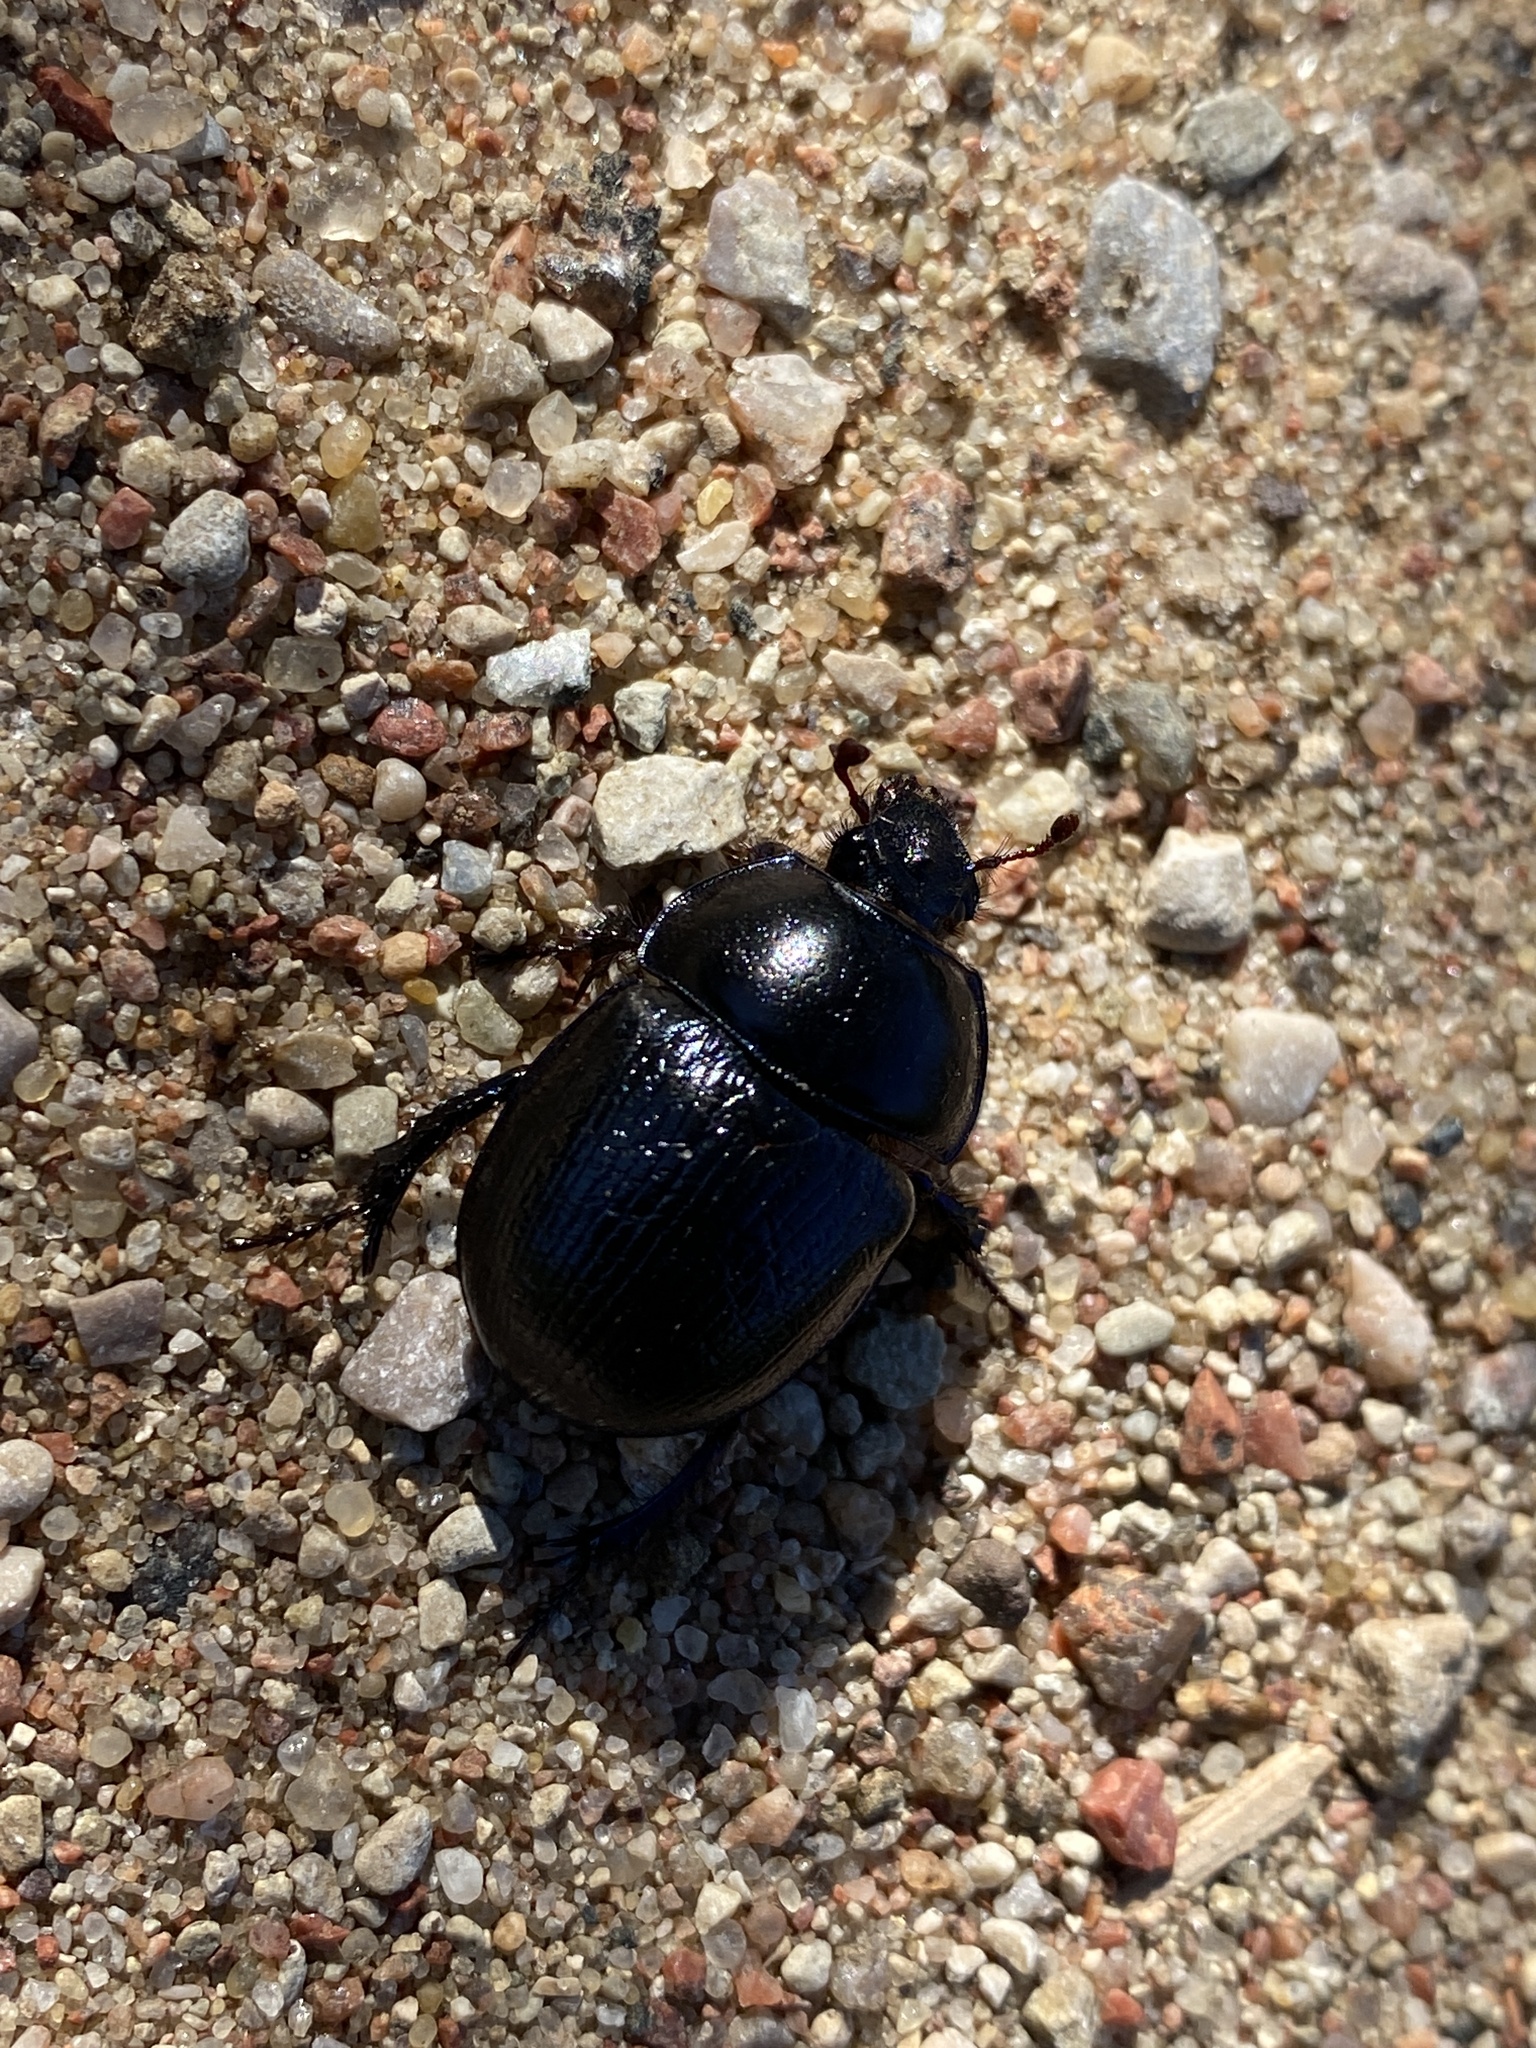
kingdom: Animalia
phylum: Arthropoda
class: Insecta
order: Coleoptera
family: Geotrupidae
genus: Anoplotrupes
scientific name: Anoplotrupes stercorosus
